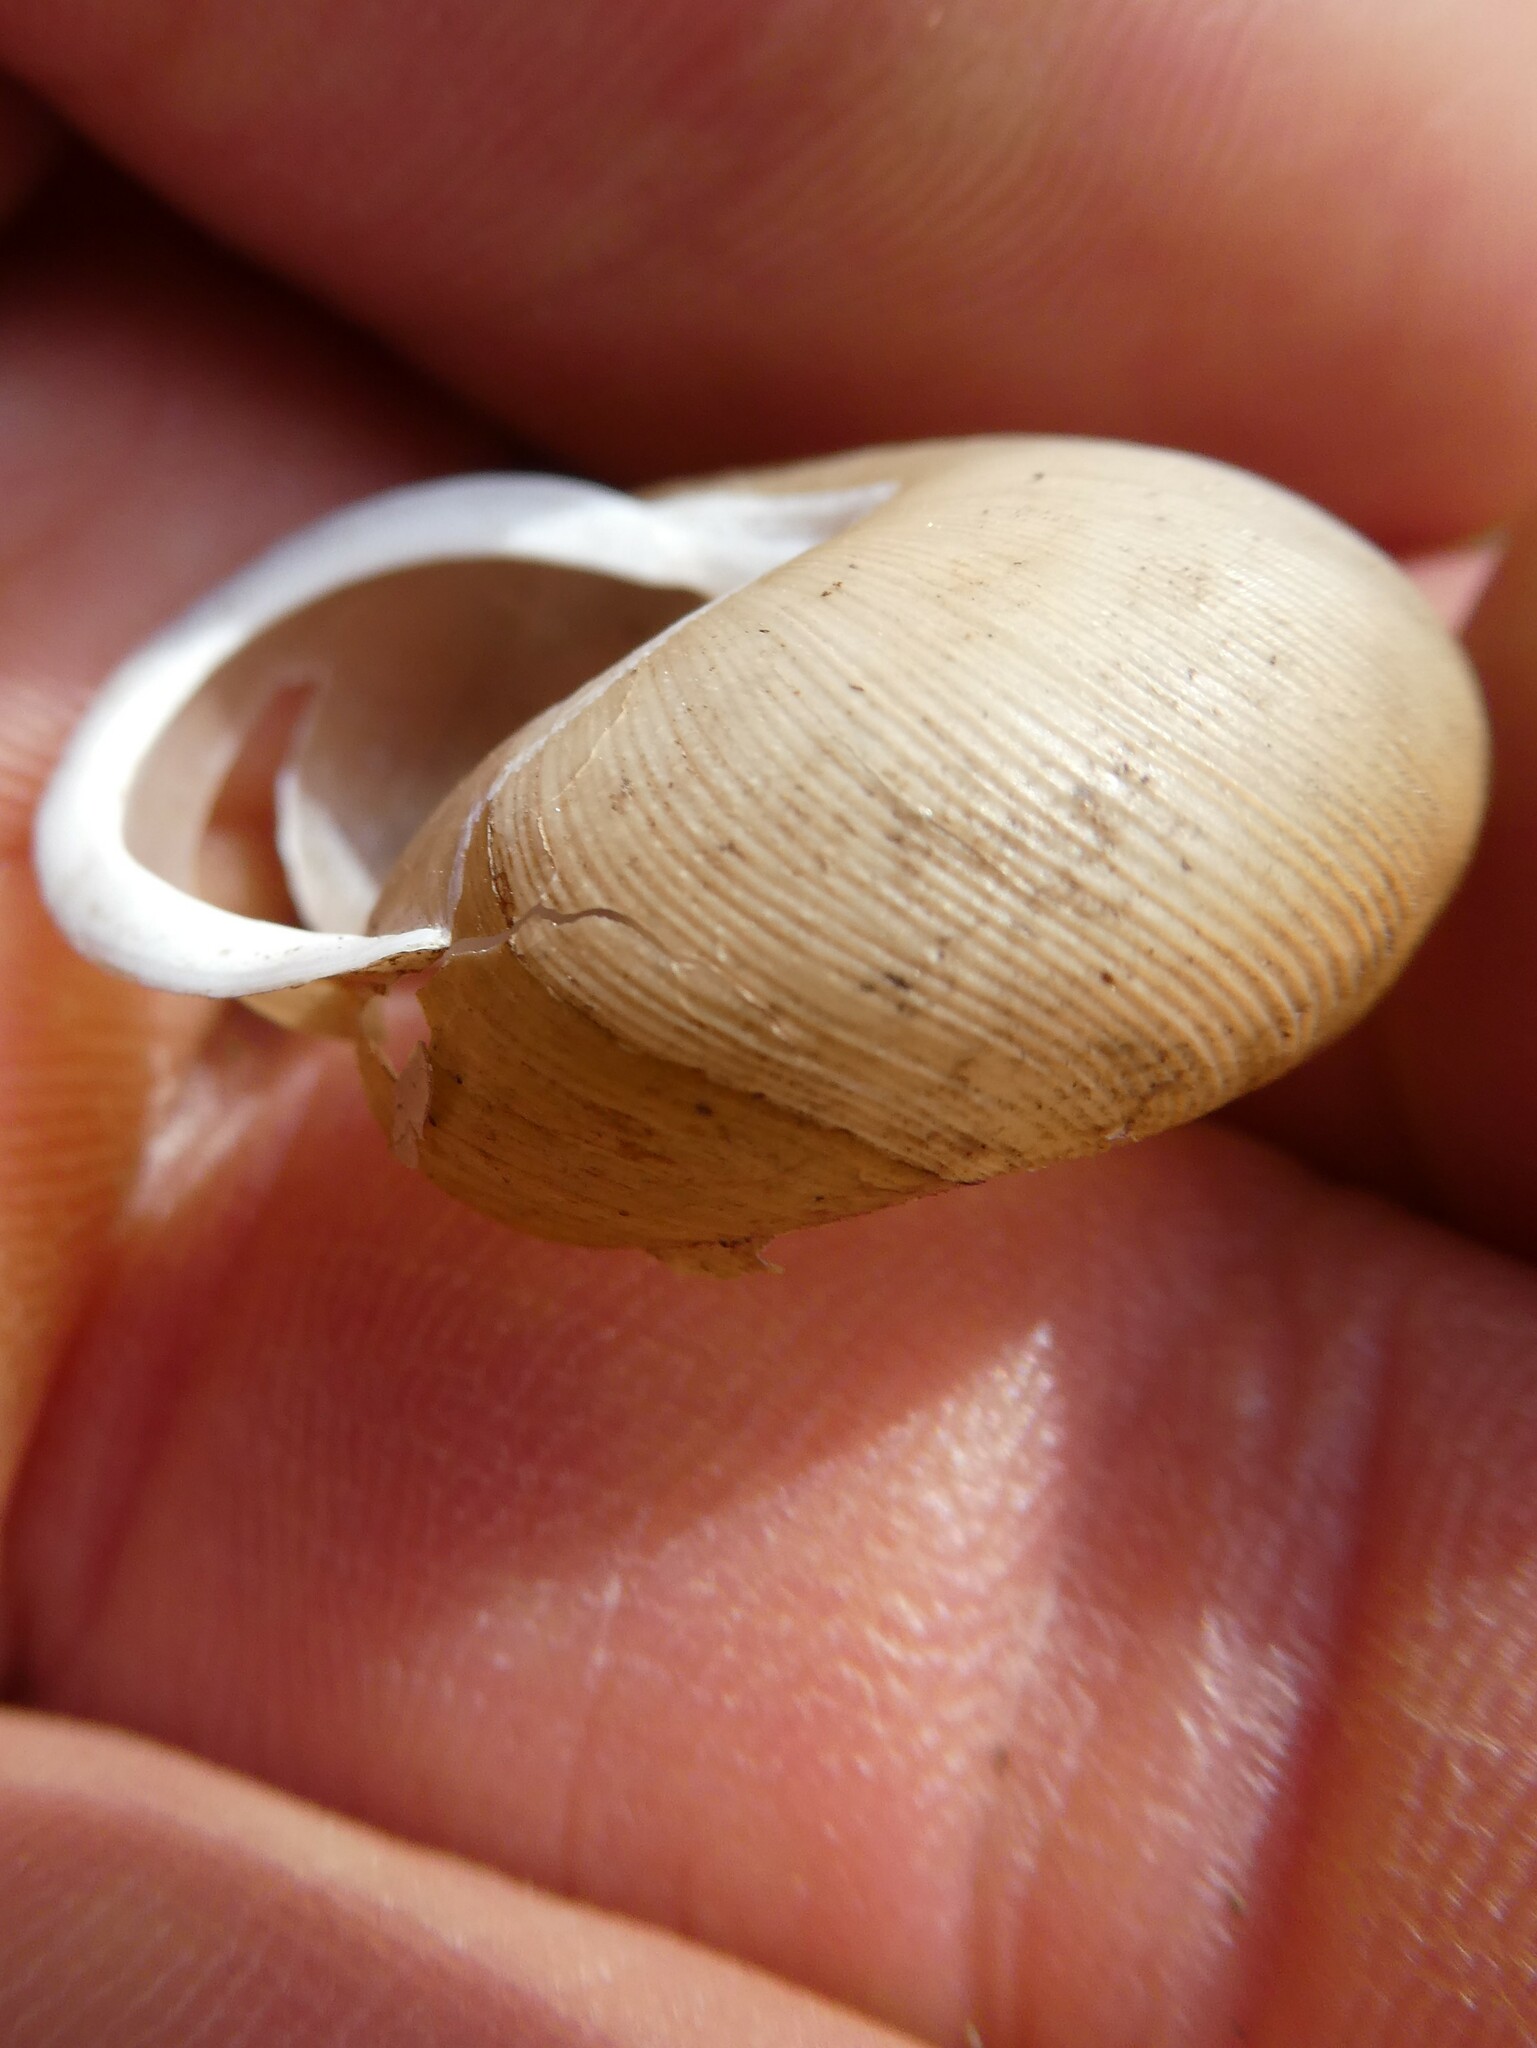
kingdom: Animalia
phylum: Mollusca
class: Gastropoda
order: Stylommatophora
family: Polygyridae
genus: Neohelix
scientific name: Neohelix albolabris
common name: Eastern whitelip
